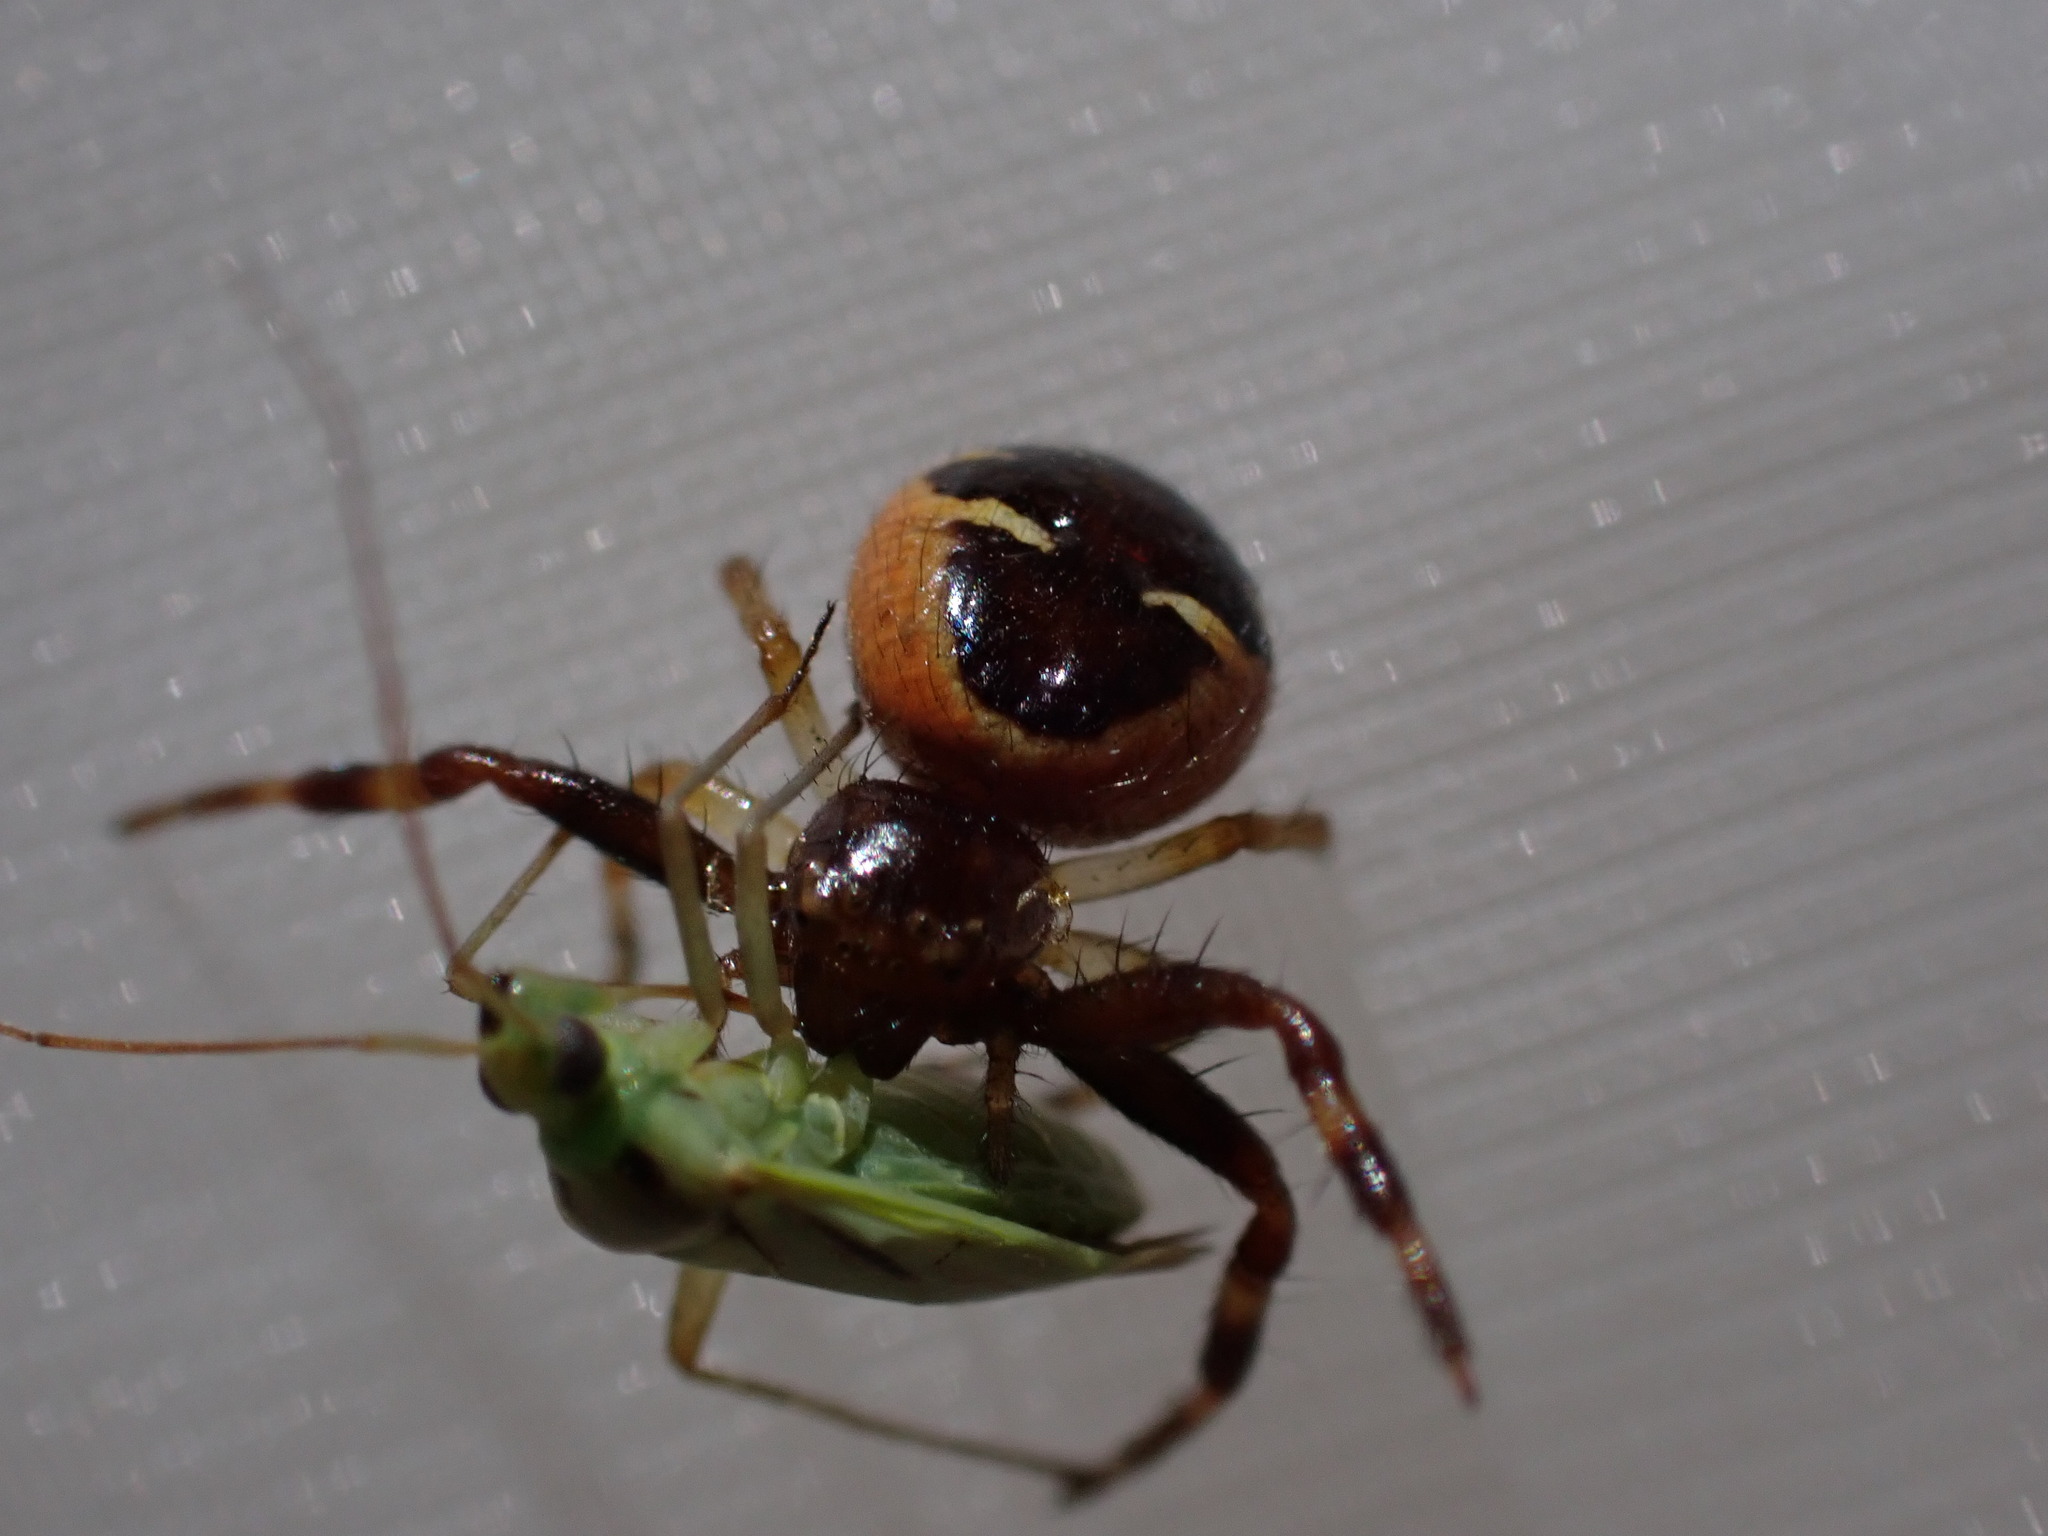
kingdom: Animalia
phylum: Arthropoda
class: Arachnida
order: Araneae
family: Thomisidae
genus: Synema
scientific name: Synema globosum
